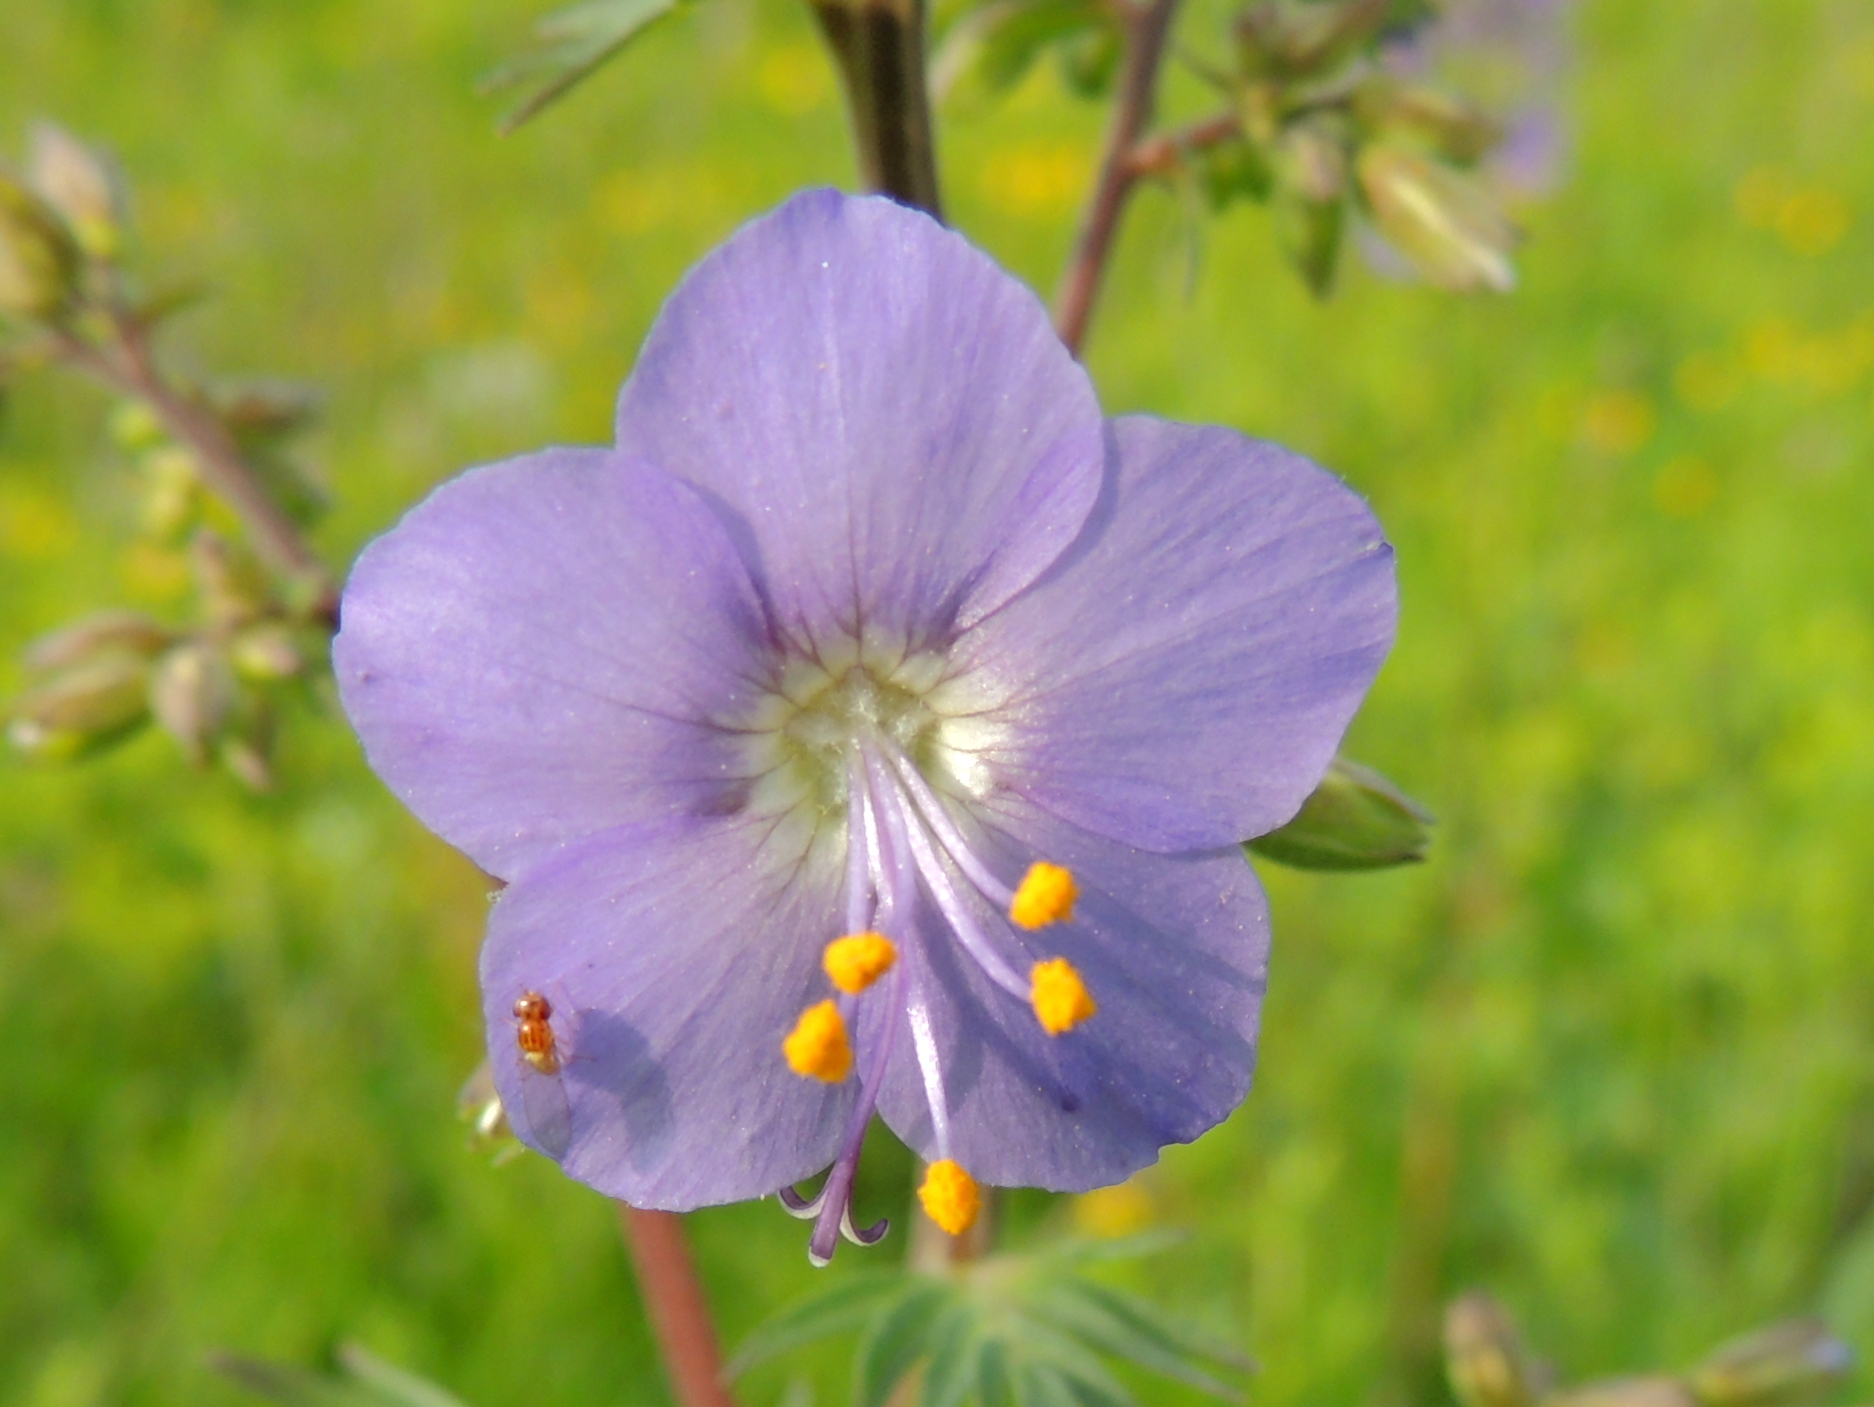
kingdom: Plantae
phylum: Tracheophyta
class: Magnoliopsida
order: Ericales
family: Polemoniaceae
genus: Polemonium
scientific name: Polemonium caeruleum
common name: Jacob's-ladder
